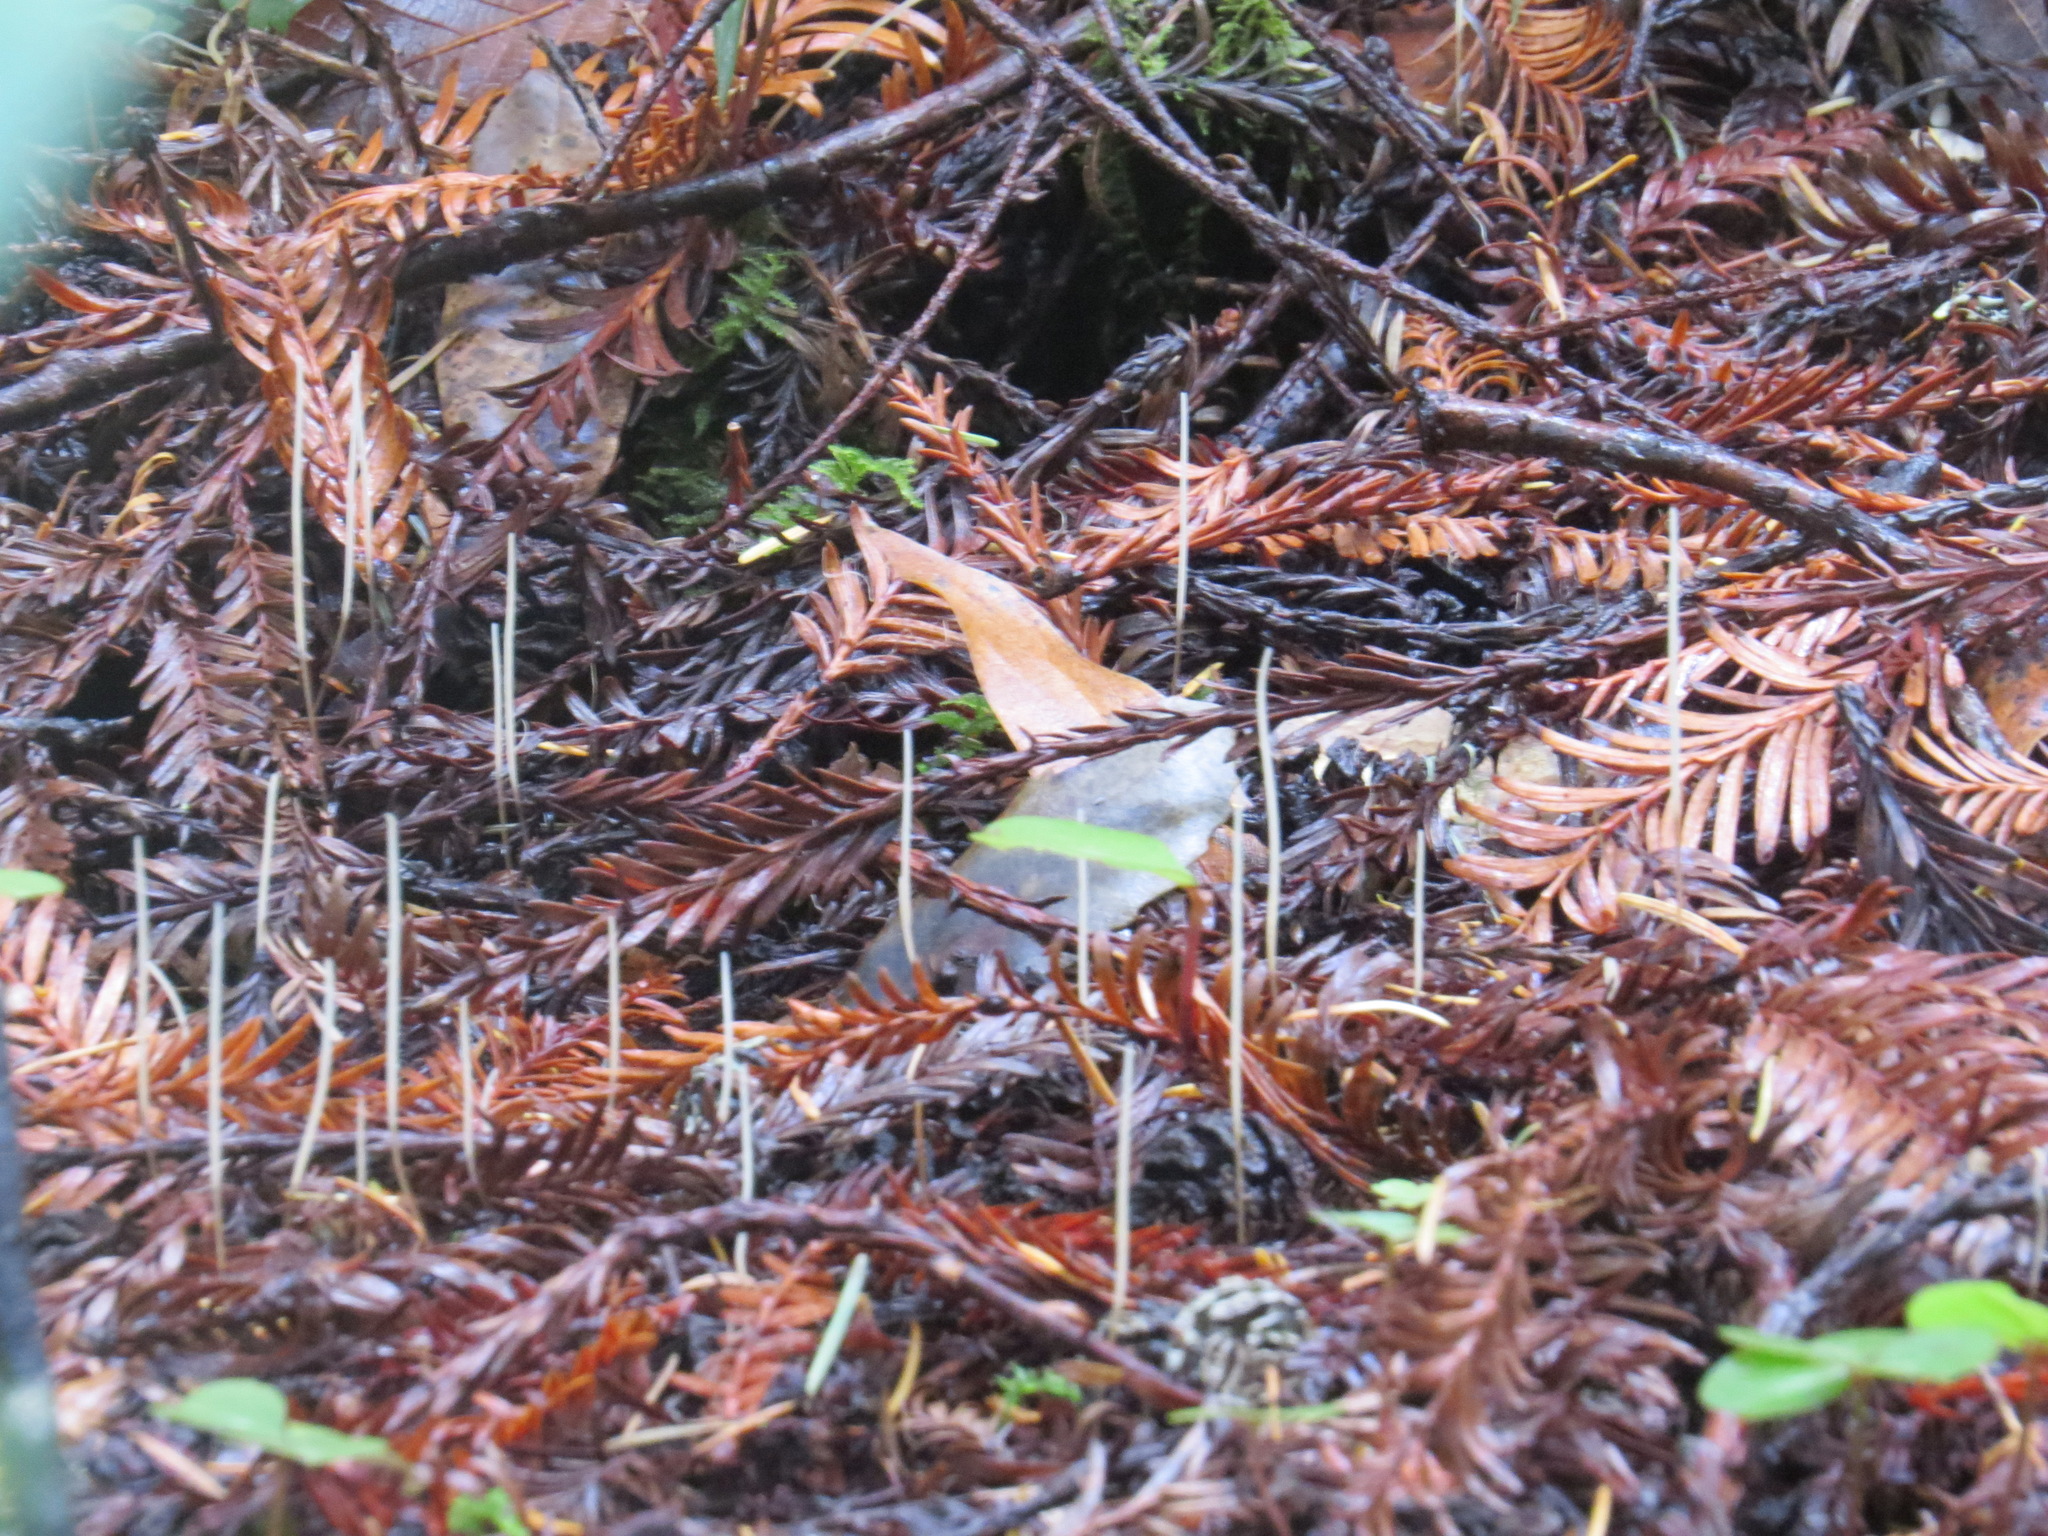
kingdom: Fungi
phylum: Basidiomycota
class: Agaricomycetes
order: Agaricales
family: Typhulaceae
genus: Typhula
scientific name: Typhula juncea
